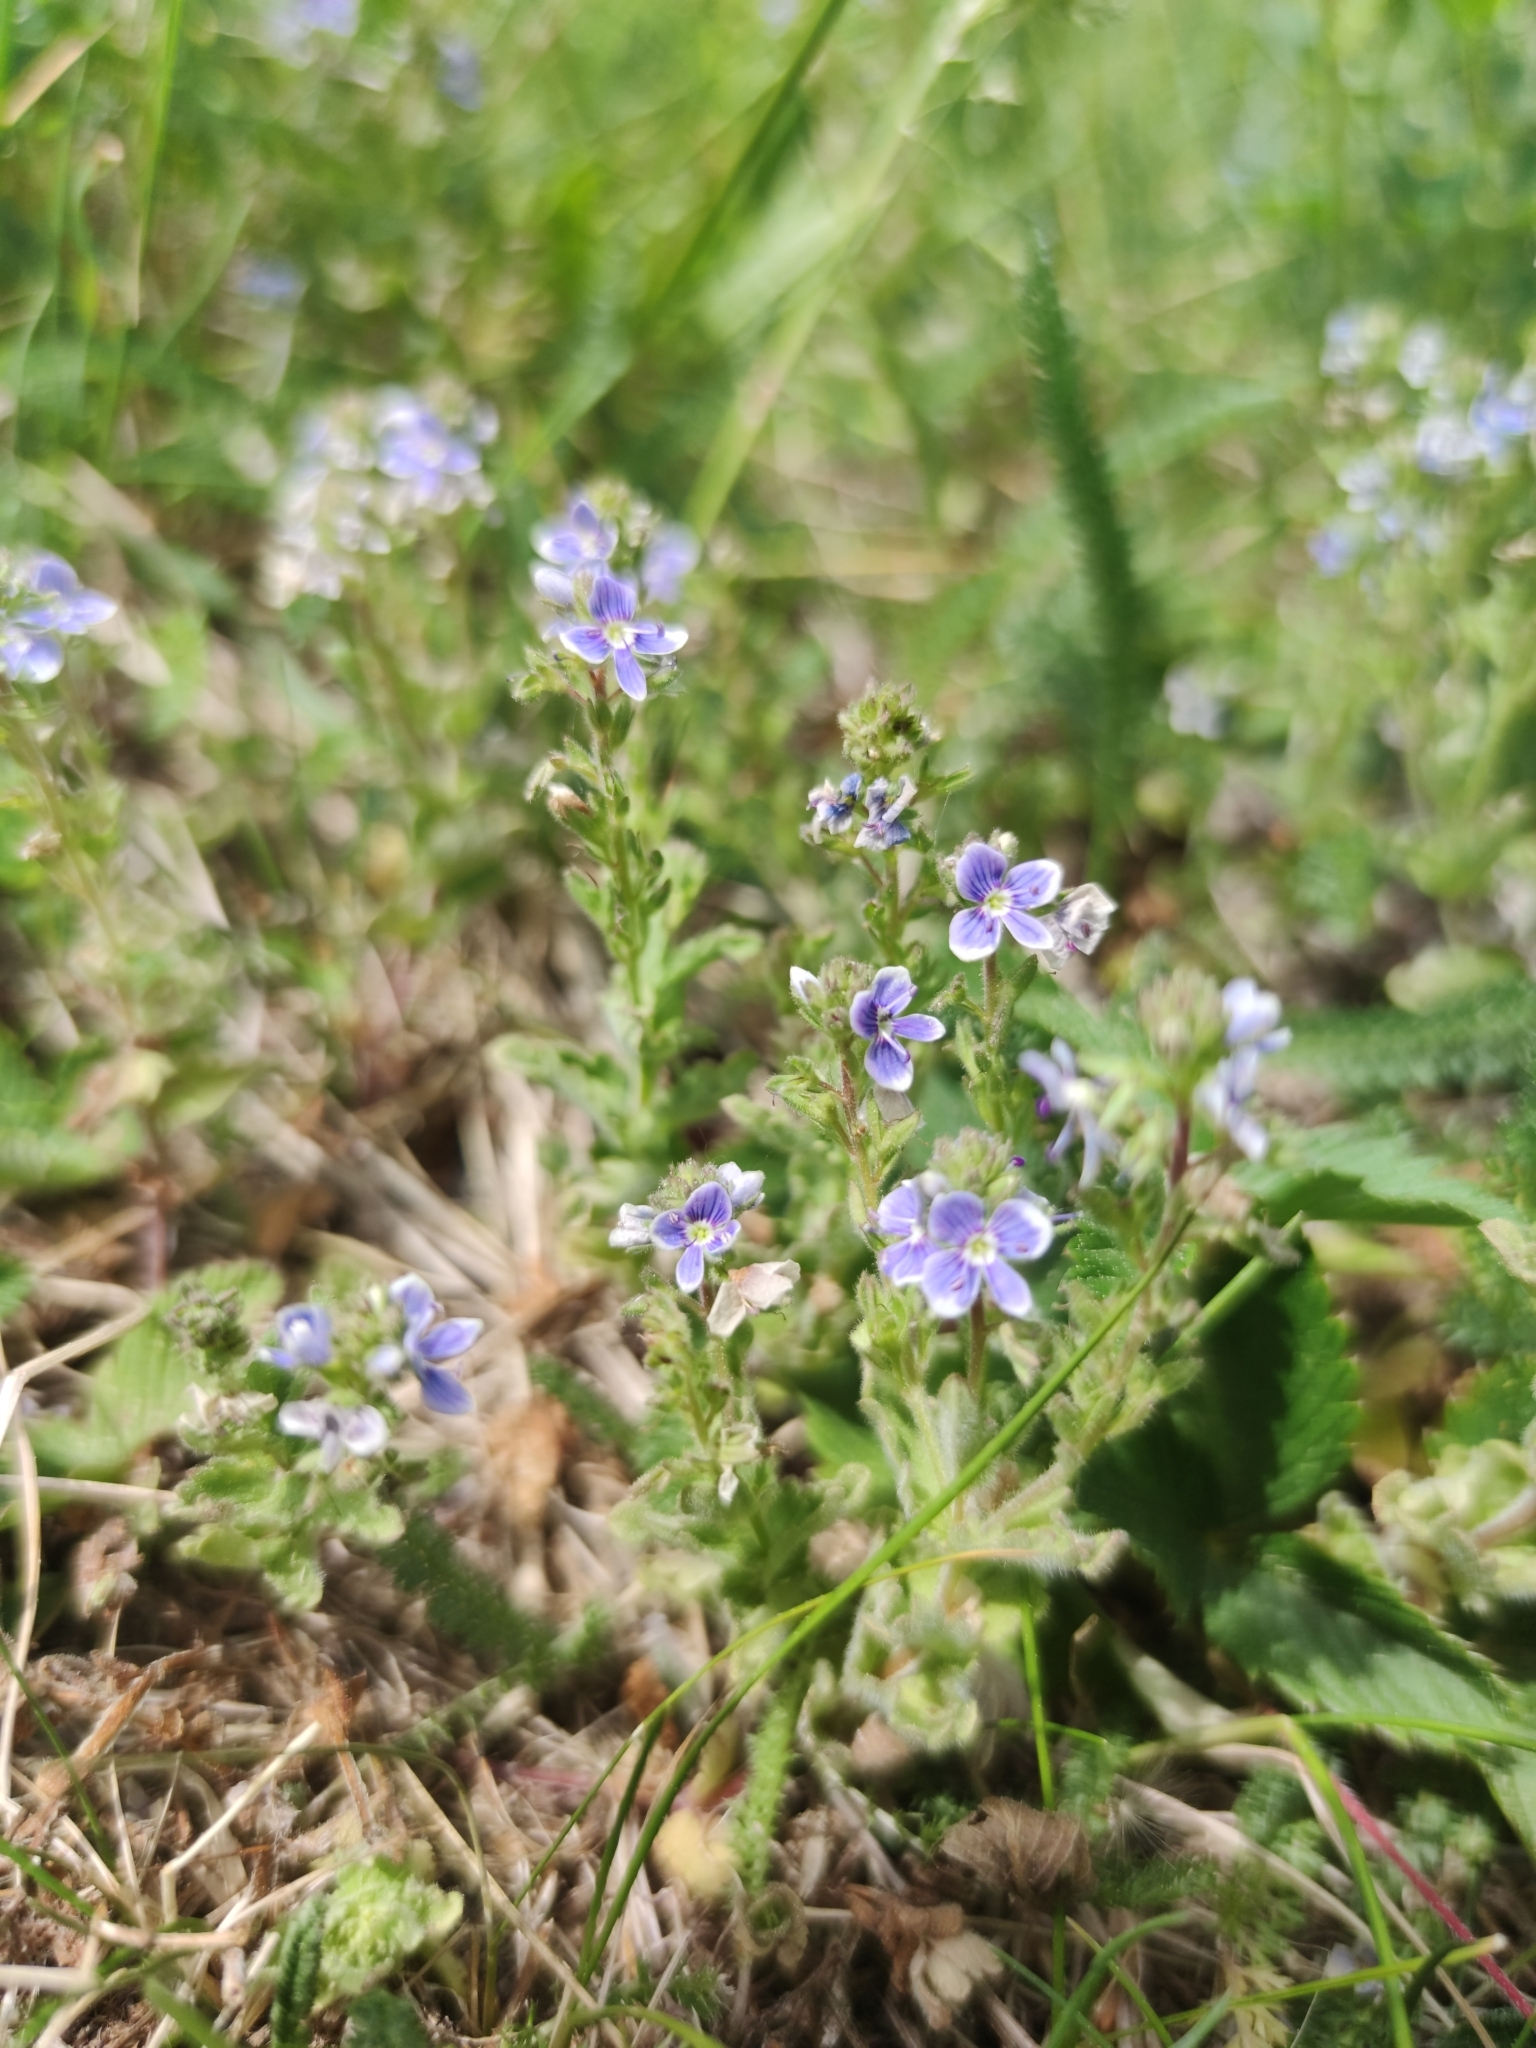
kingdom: Plantae
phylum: Tracheophyta
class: Magnoliopsida
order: Lamiales
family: Plantaginaceae
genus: Veronica
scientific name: Veronica chamaedrys
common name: Germander speedwell
